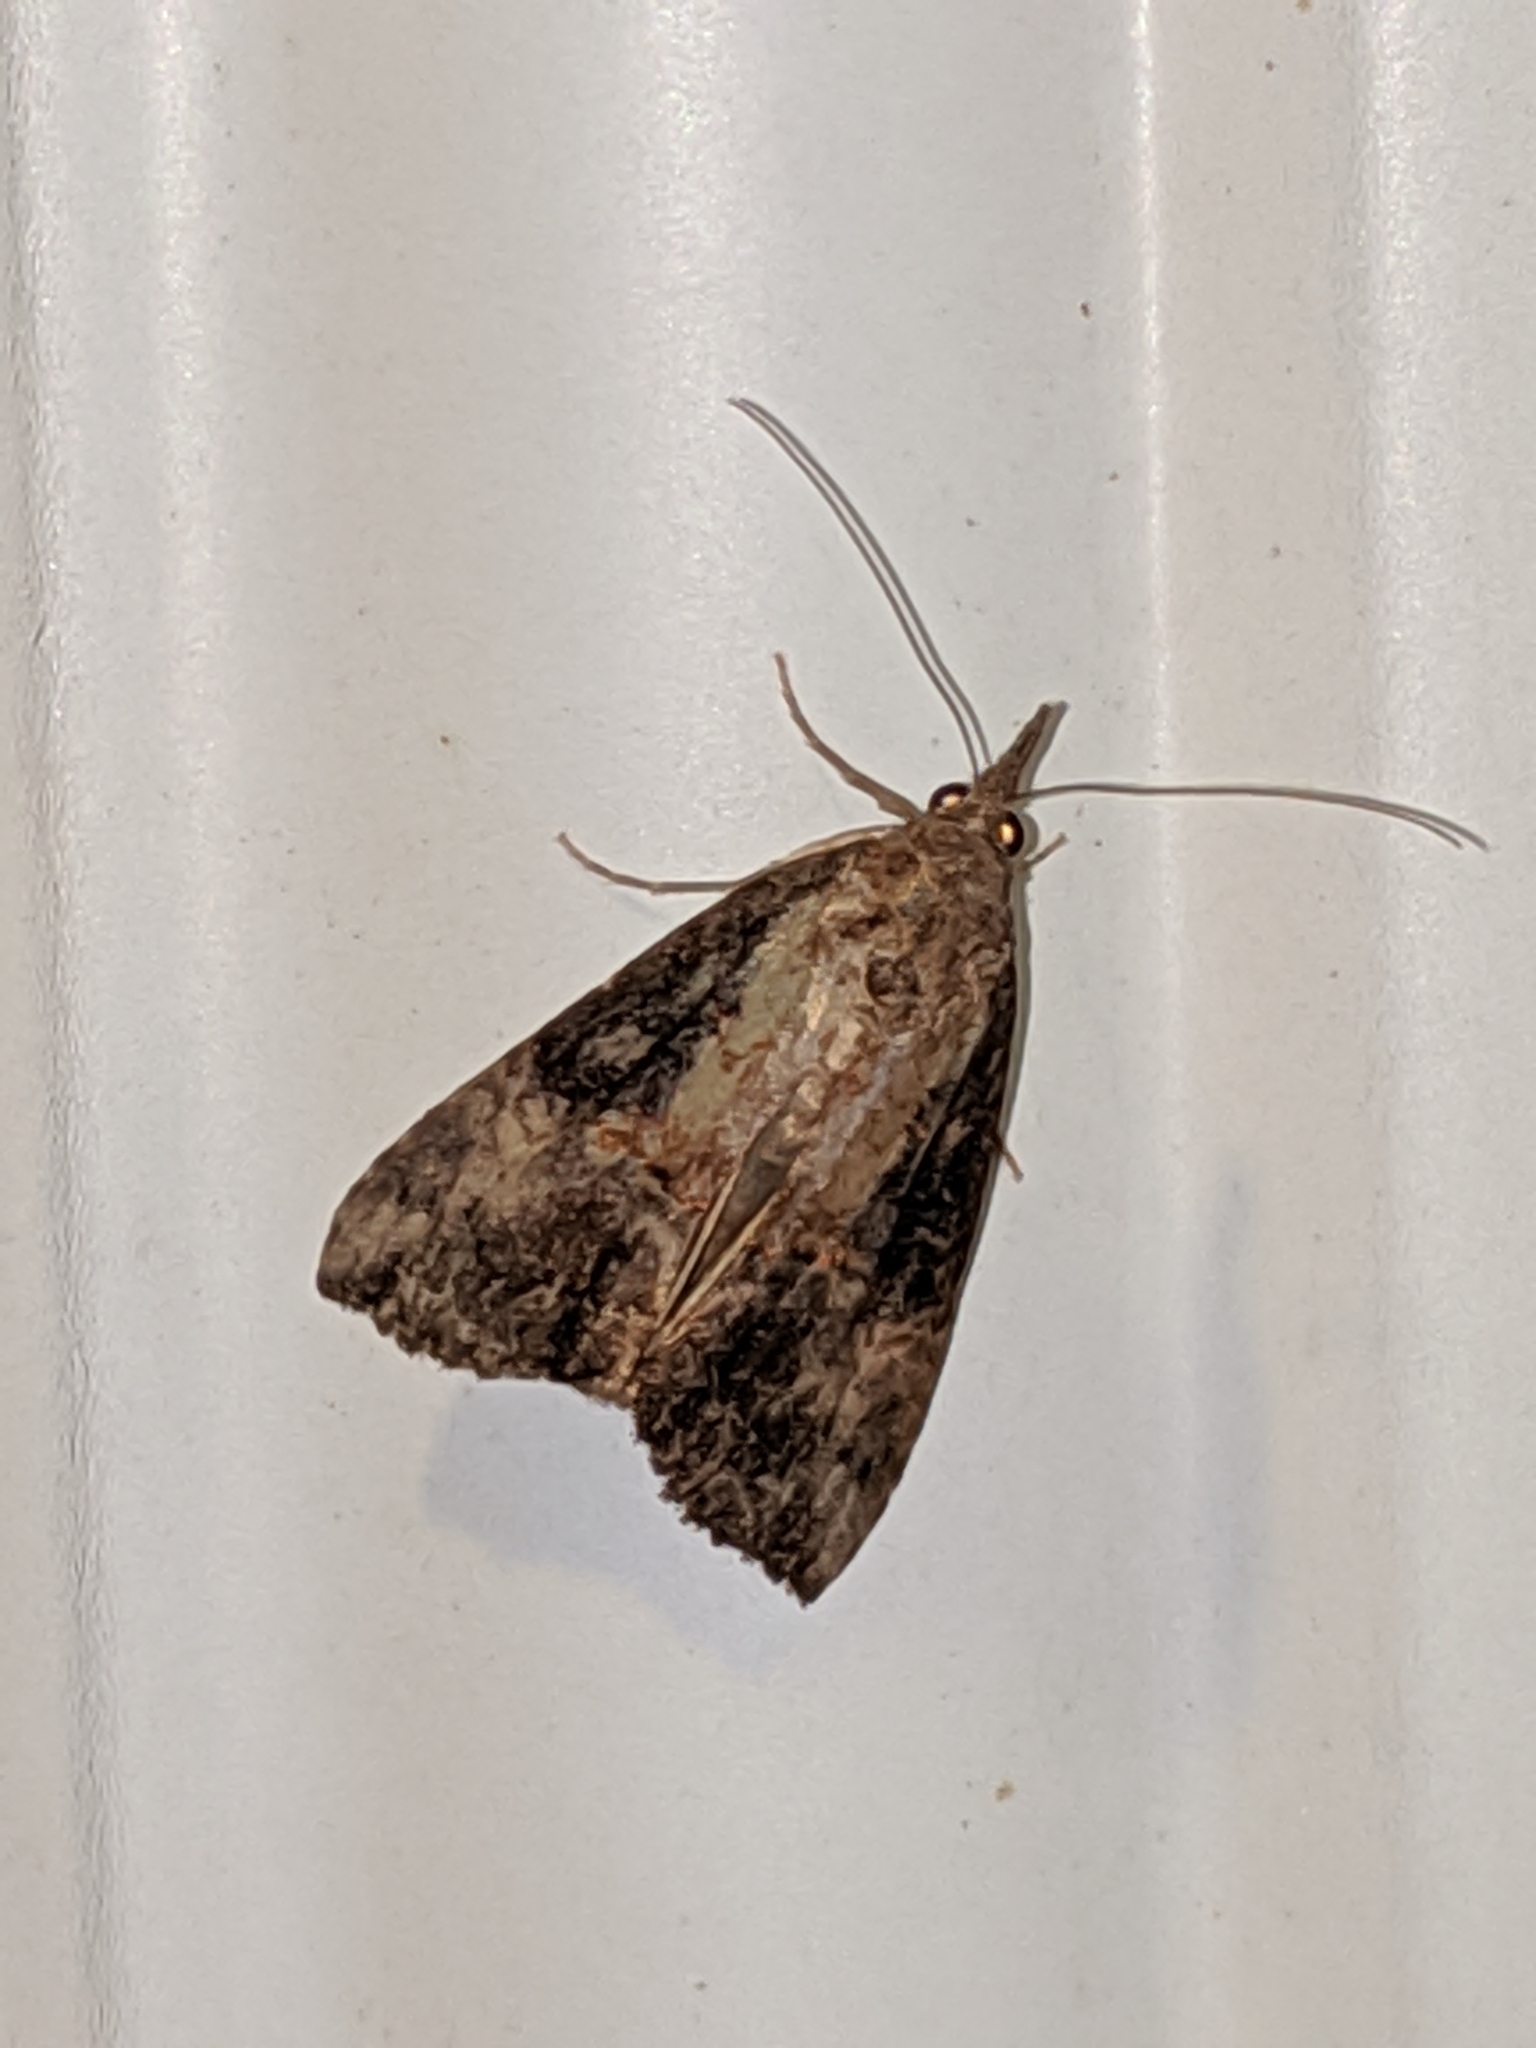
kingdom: Animalia
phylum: Arthropoda
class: Insecta
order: Lepidoptera
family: Erebidae
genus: Hypena
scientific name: Hypena scabra
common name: Green cloverworm
